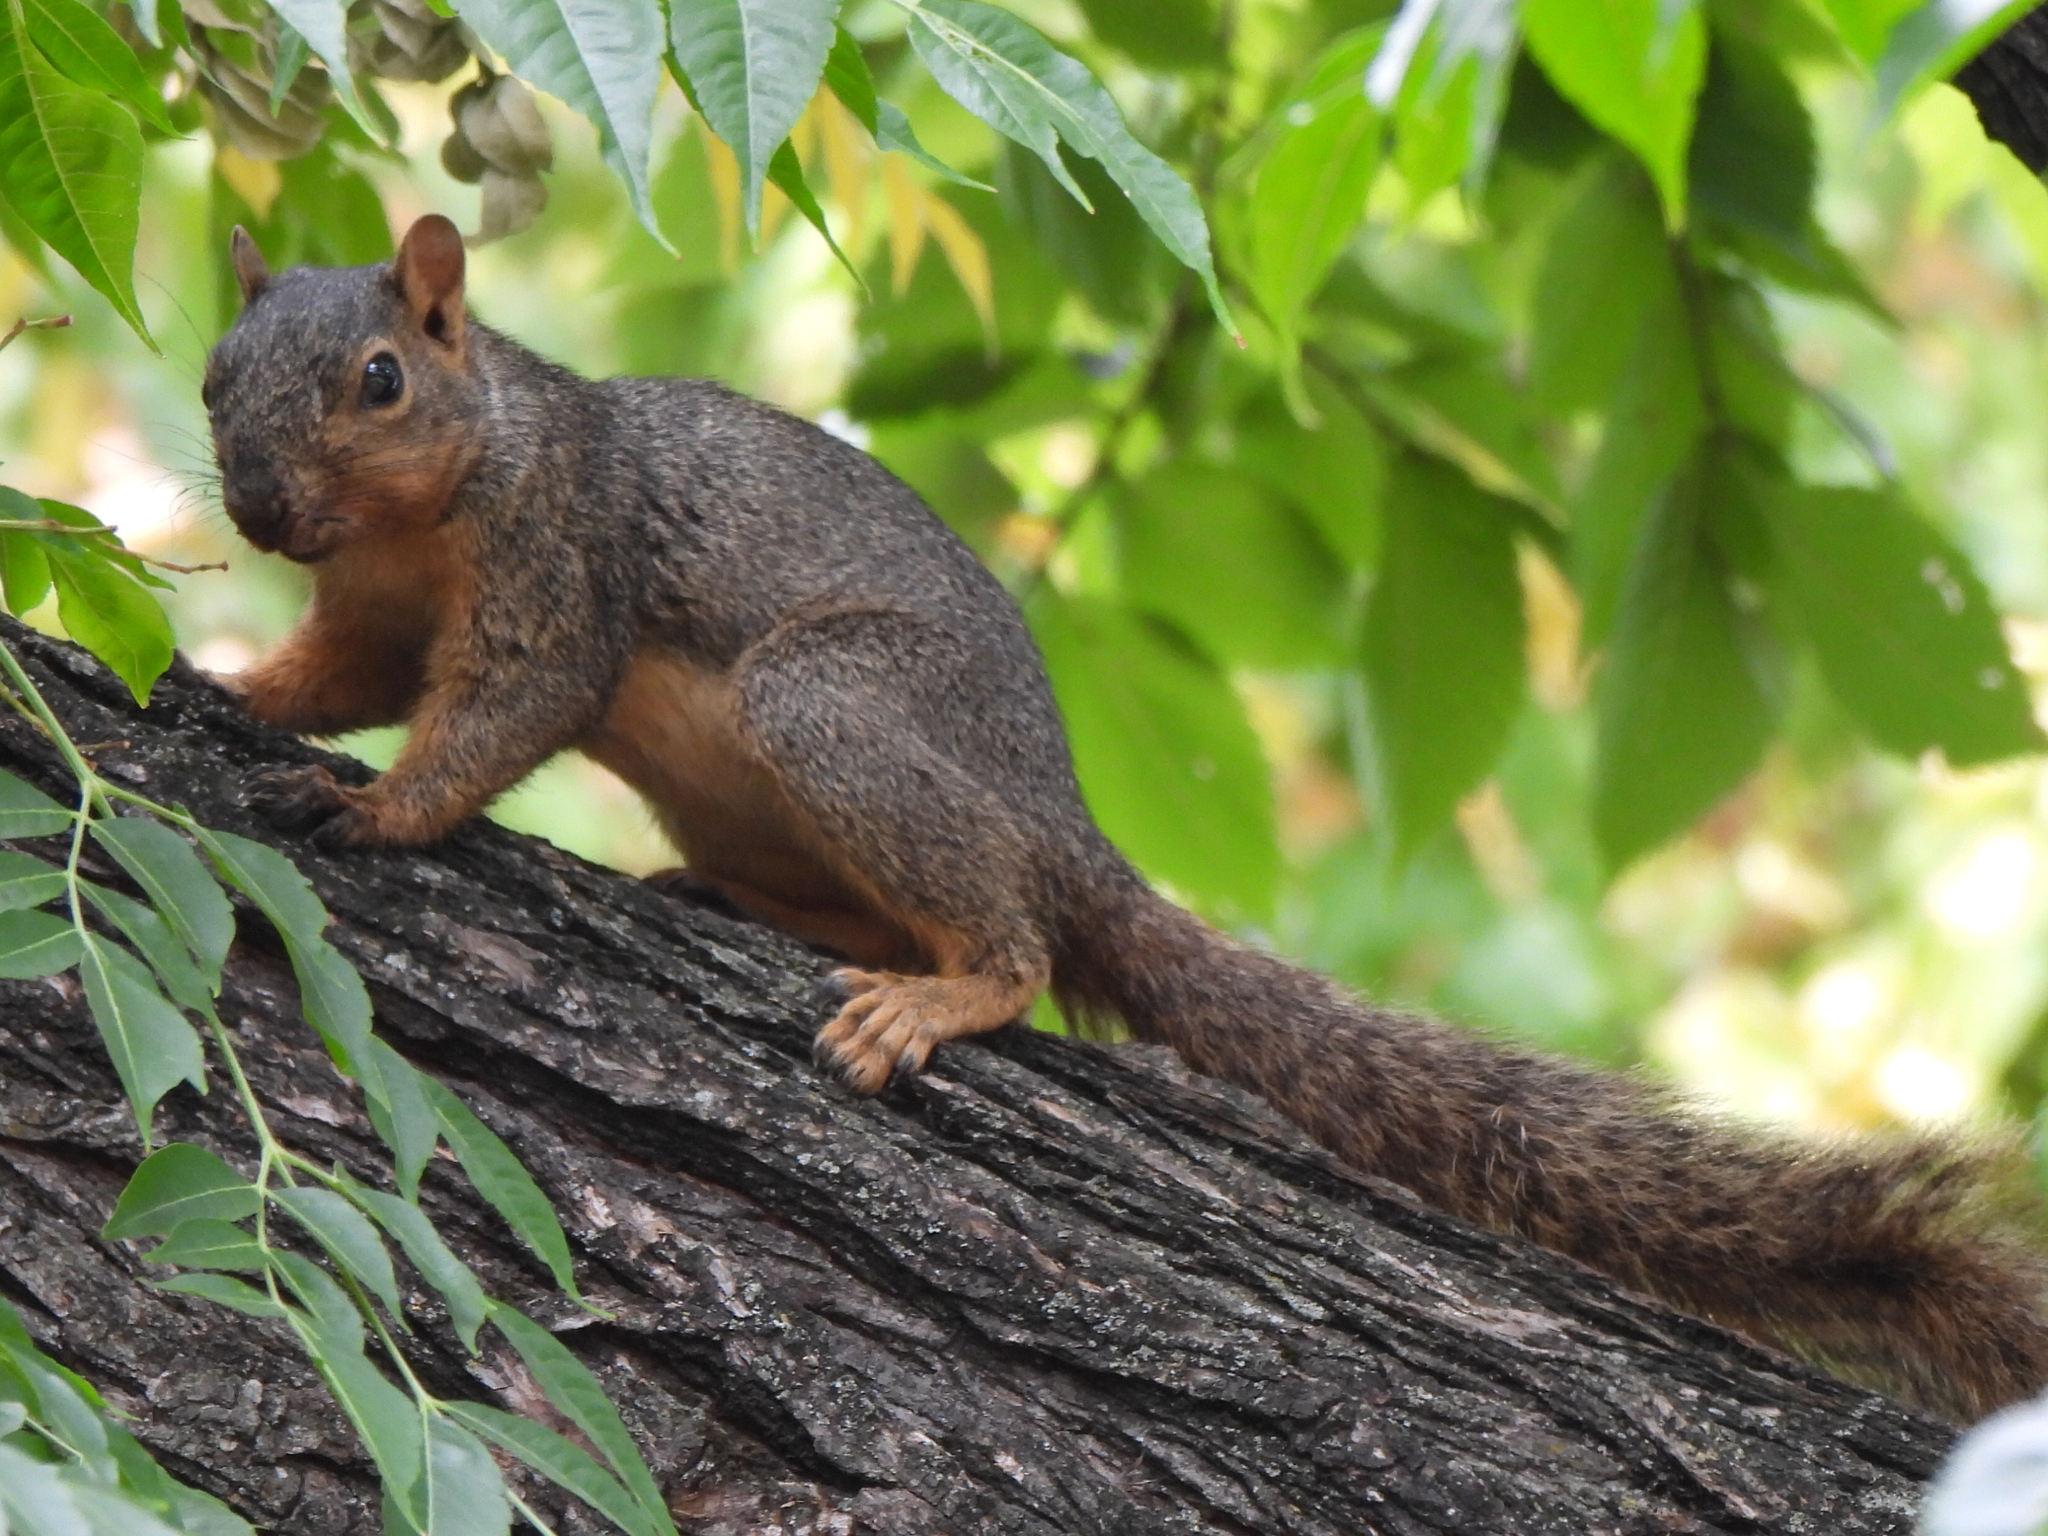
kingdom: Animalia
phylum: Chordata
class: Mammalia
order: Rodentia
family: Sciuridae
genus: Sciurus
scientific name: Sciurus niger
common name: Fox squirrel
